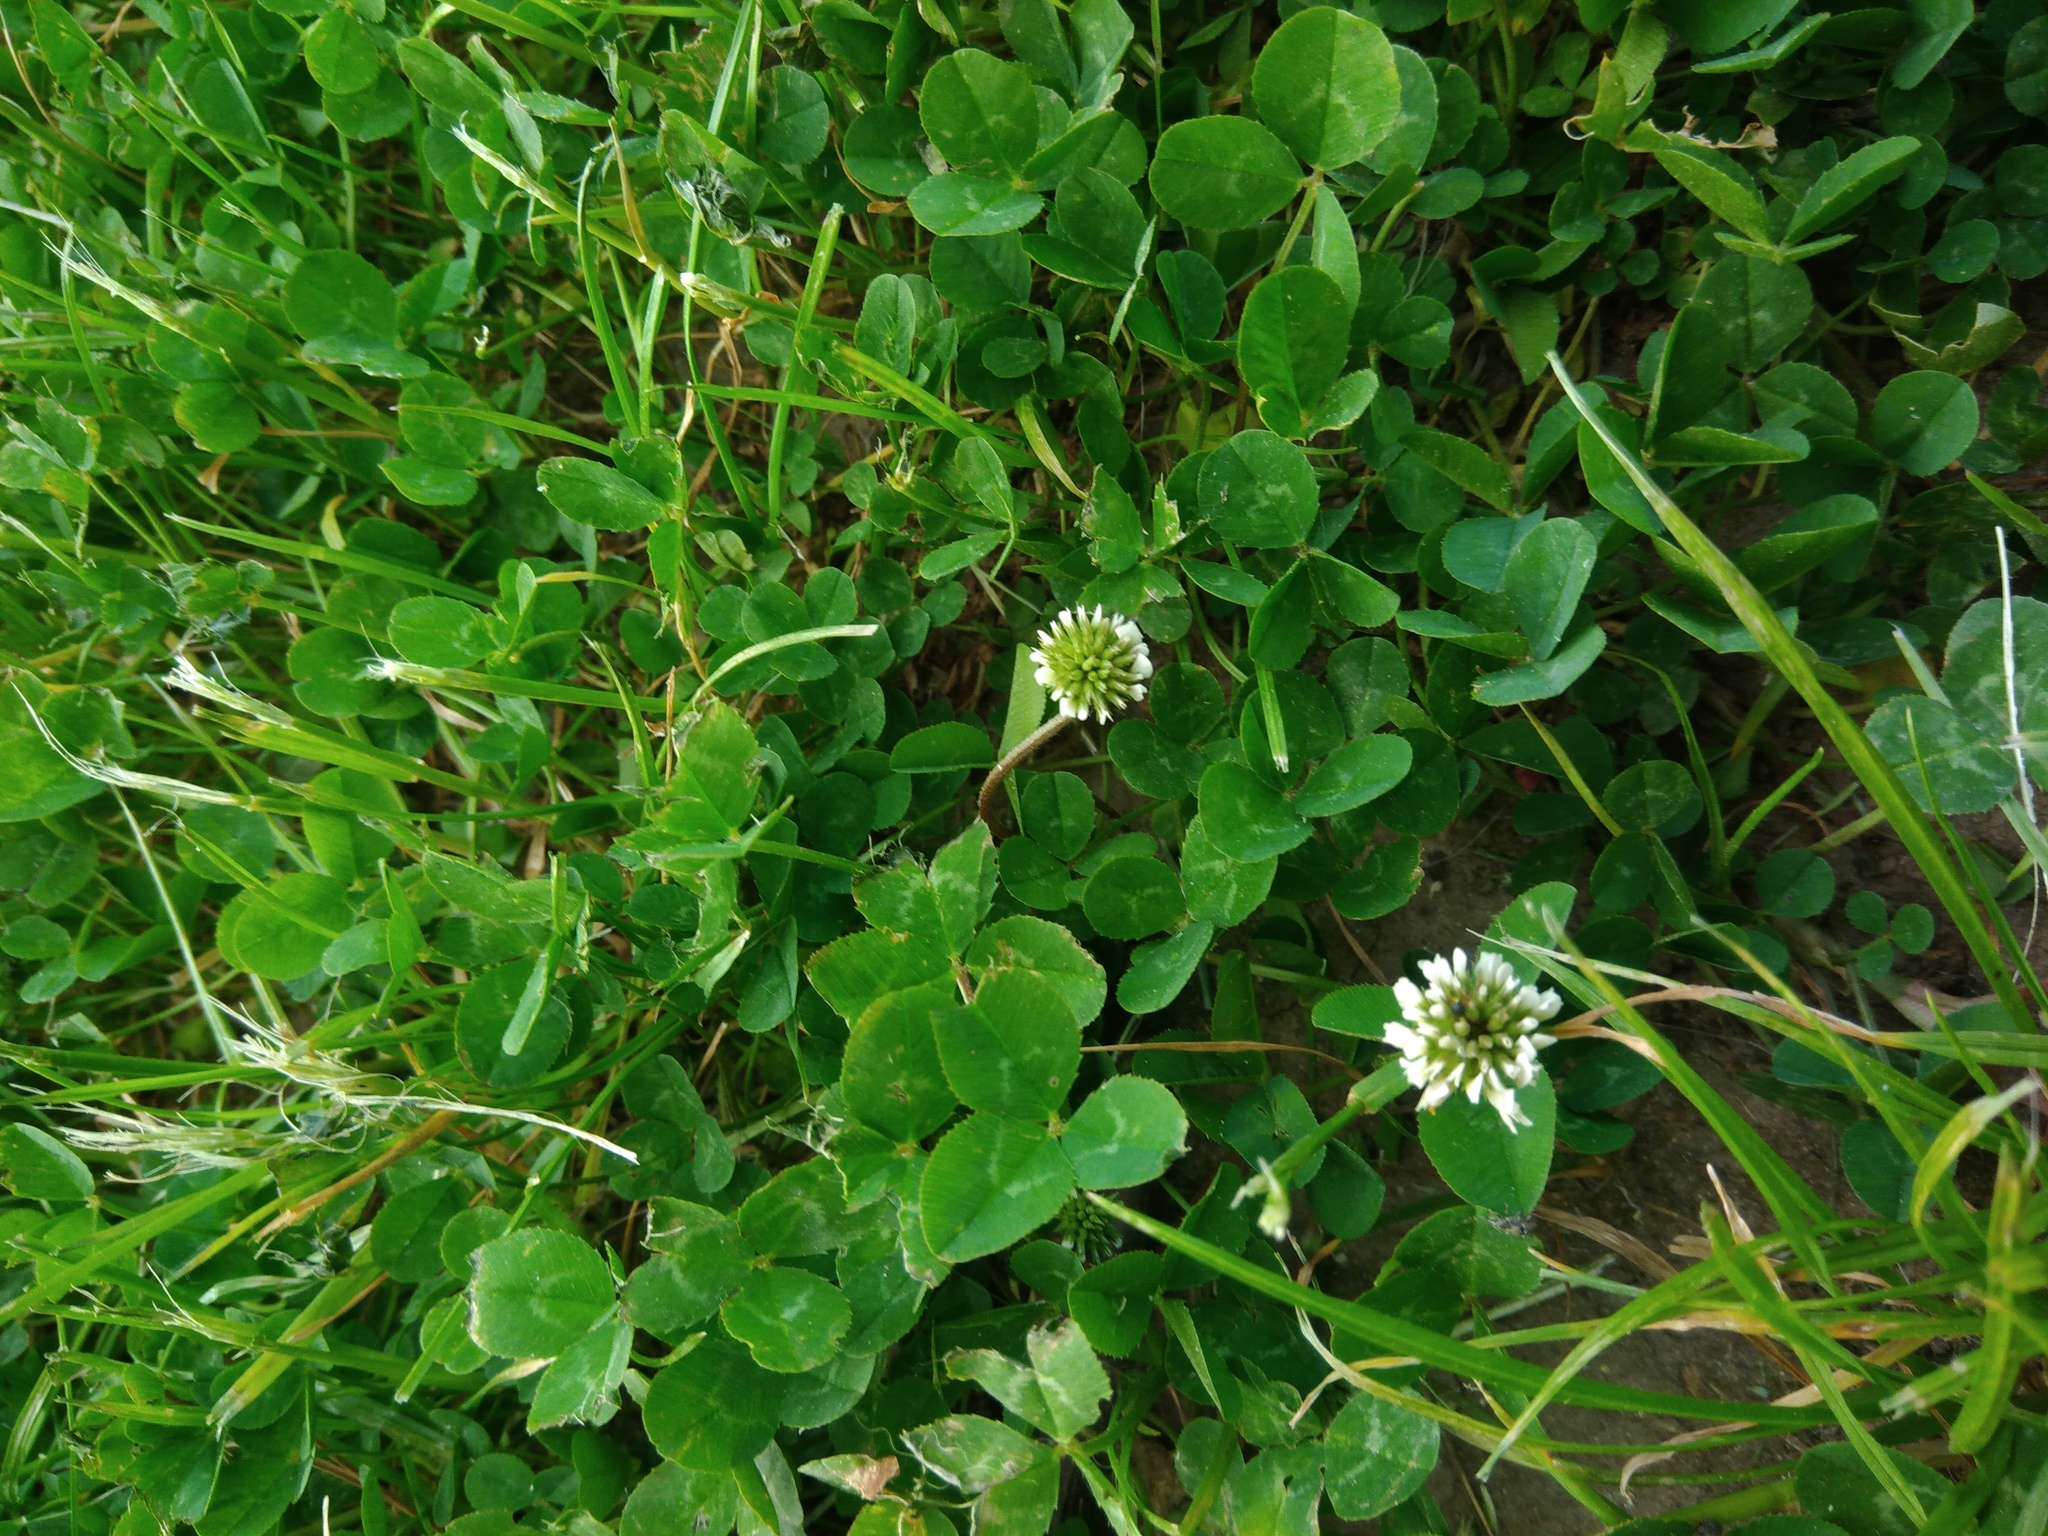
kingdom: Plantae
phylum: Tracheophyta
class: Magnoliopsida
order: Fabales
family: Fabaceae
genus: Trifolium
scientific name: Trifolium repens
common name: White clover
